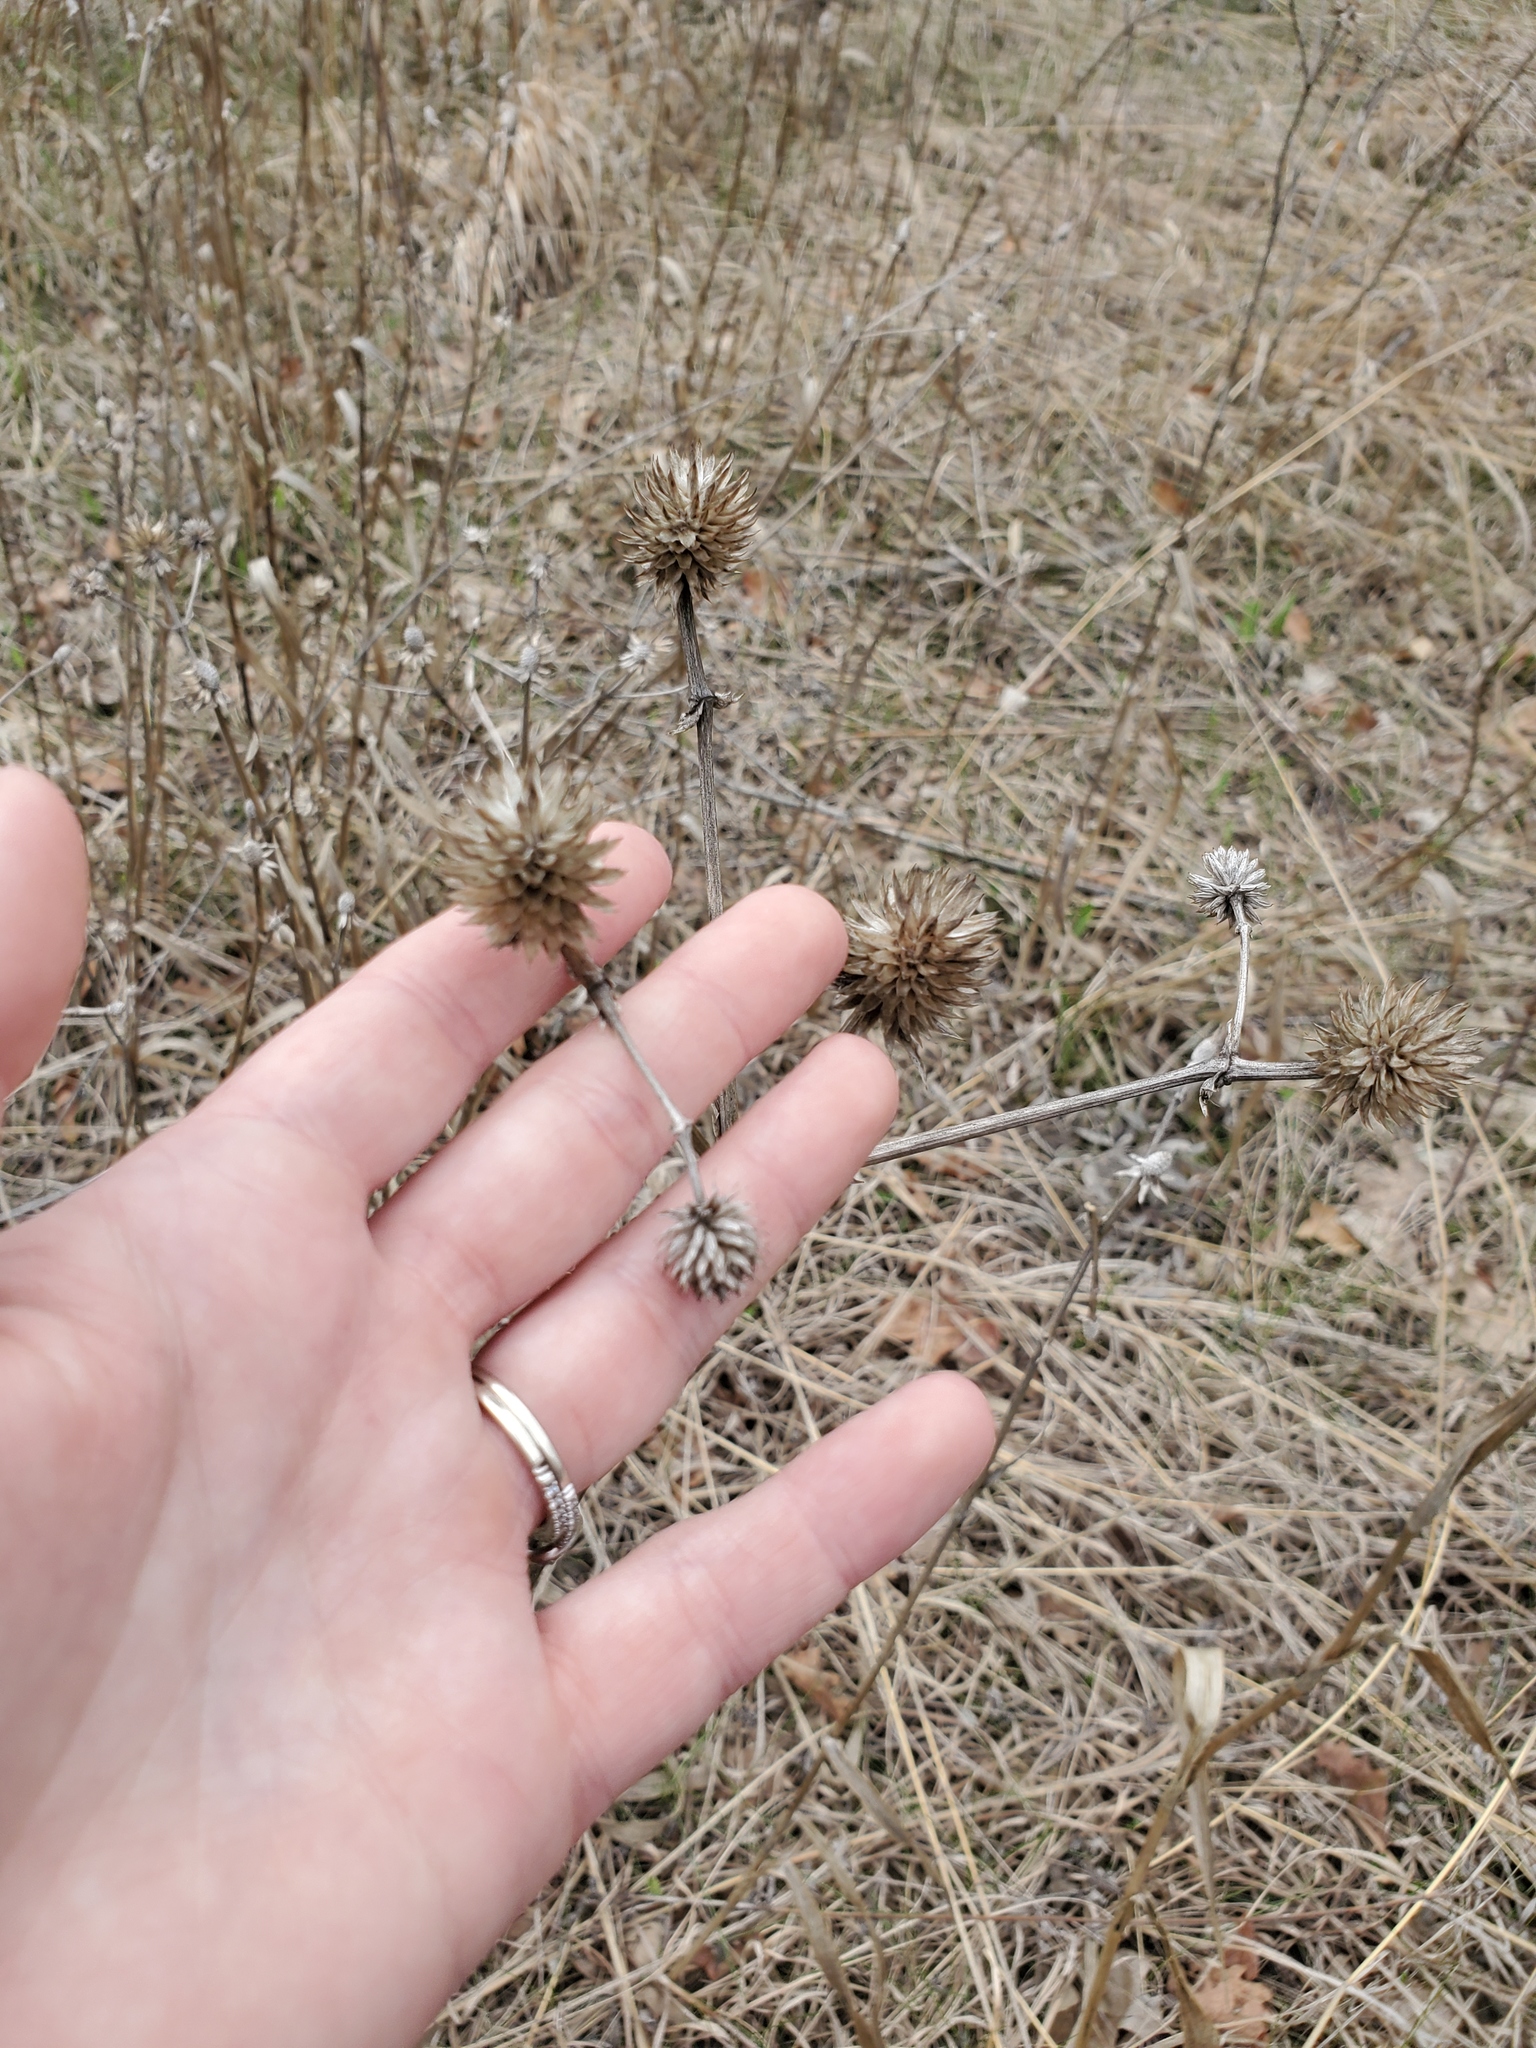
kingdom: Plantae
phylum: Tracheophyta
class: Magnoliopsida
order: Apiales
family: Apiaceae
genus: Eryngium
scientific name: Eryngium yuccifolium
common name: Button eryngo
